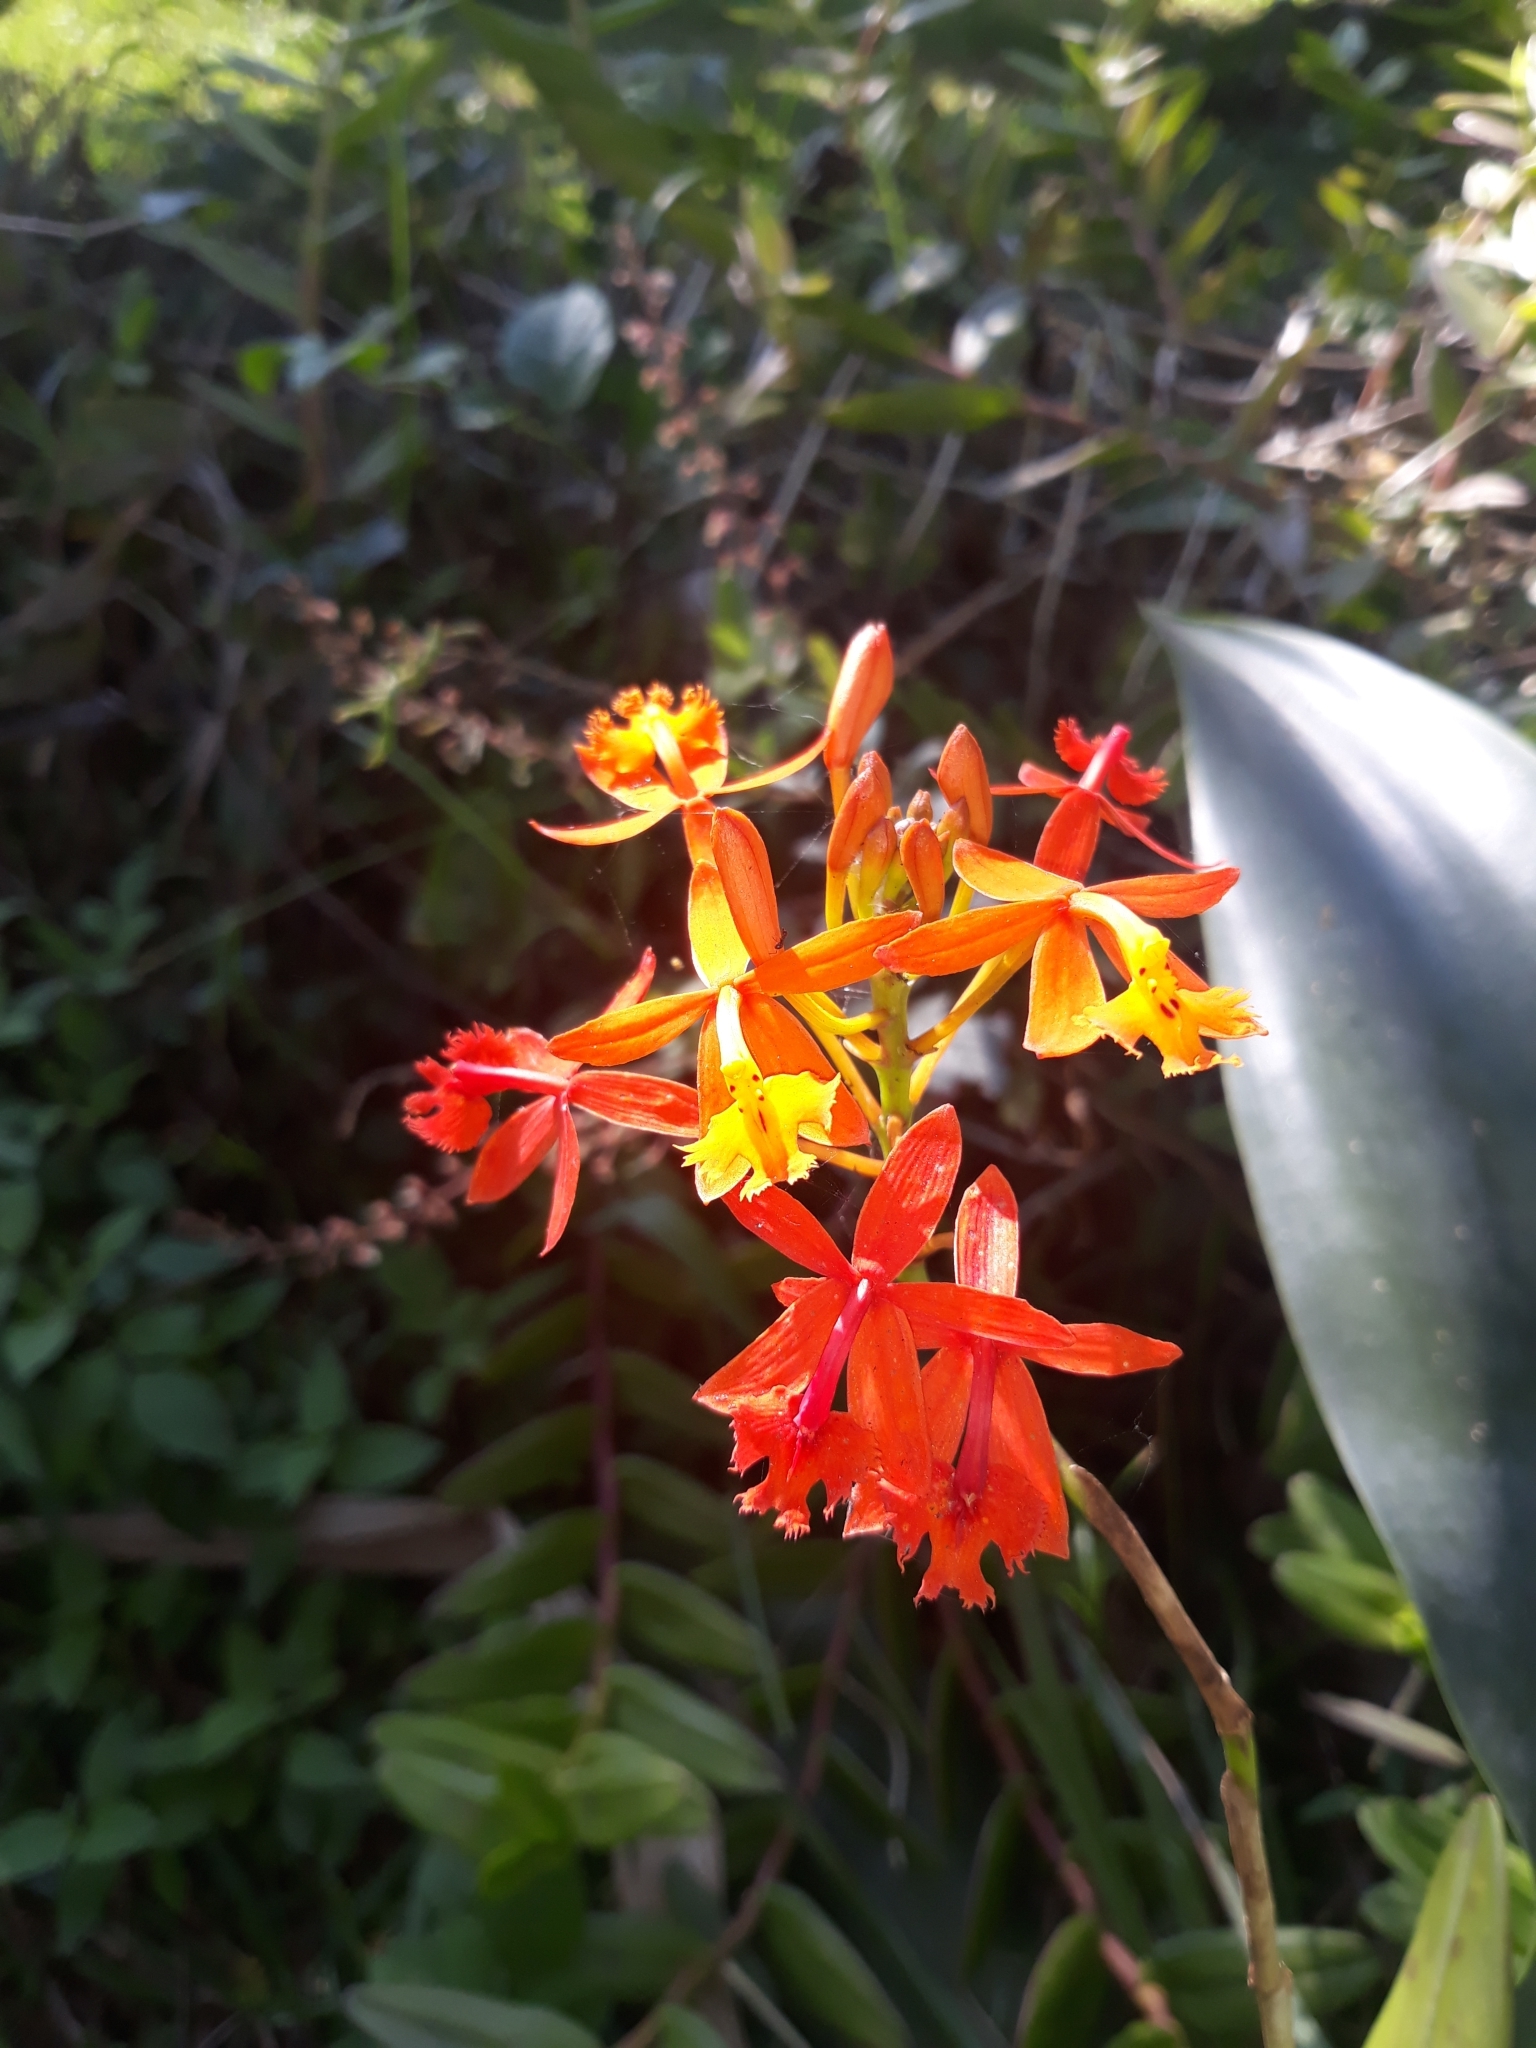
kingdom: Plantae
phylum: Tracheophyta
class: Liliopsida
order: Asparagales
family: Orchidaceae
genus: Epidendrum
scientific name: Epidendrum radicans
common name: Fire star orchid
